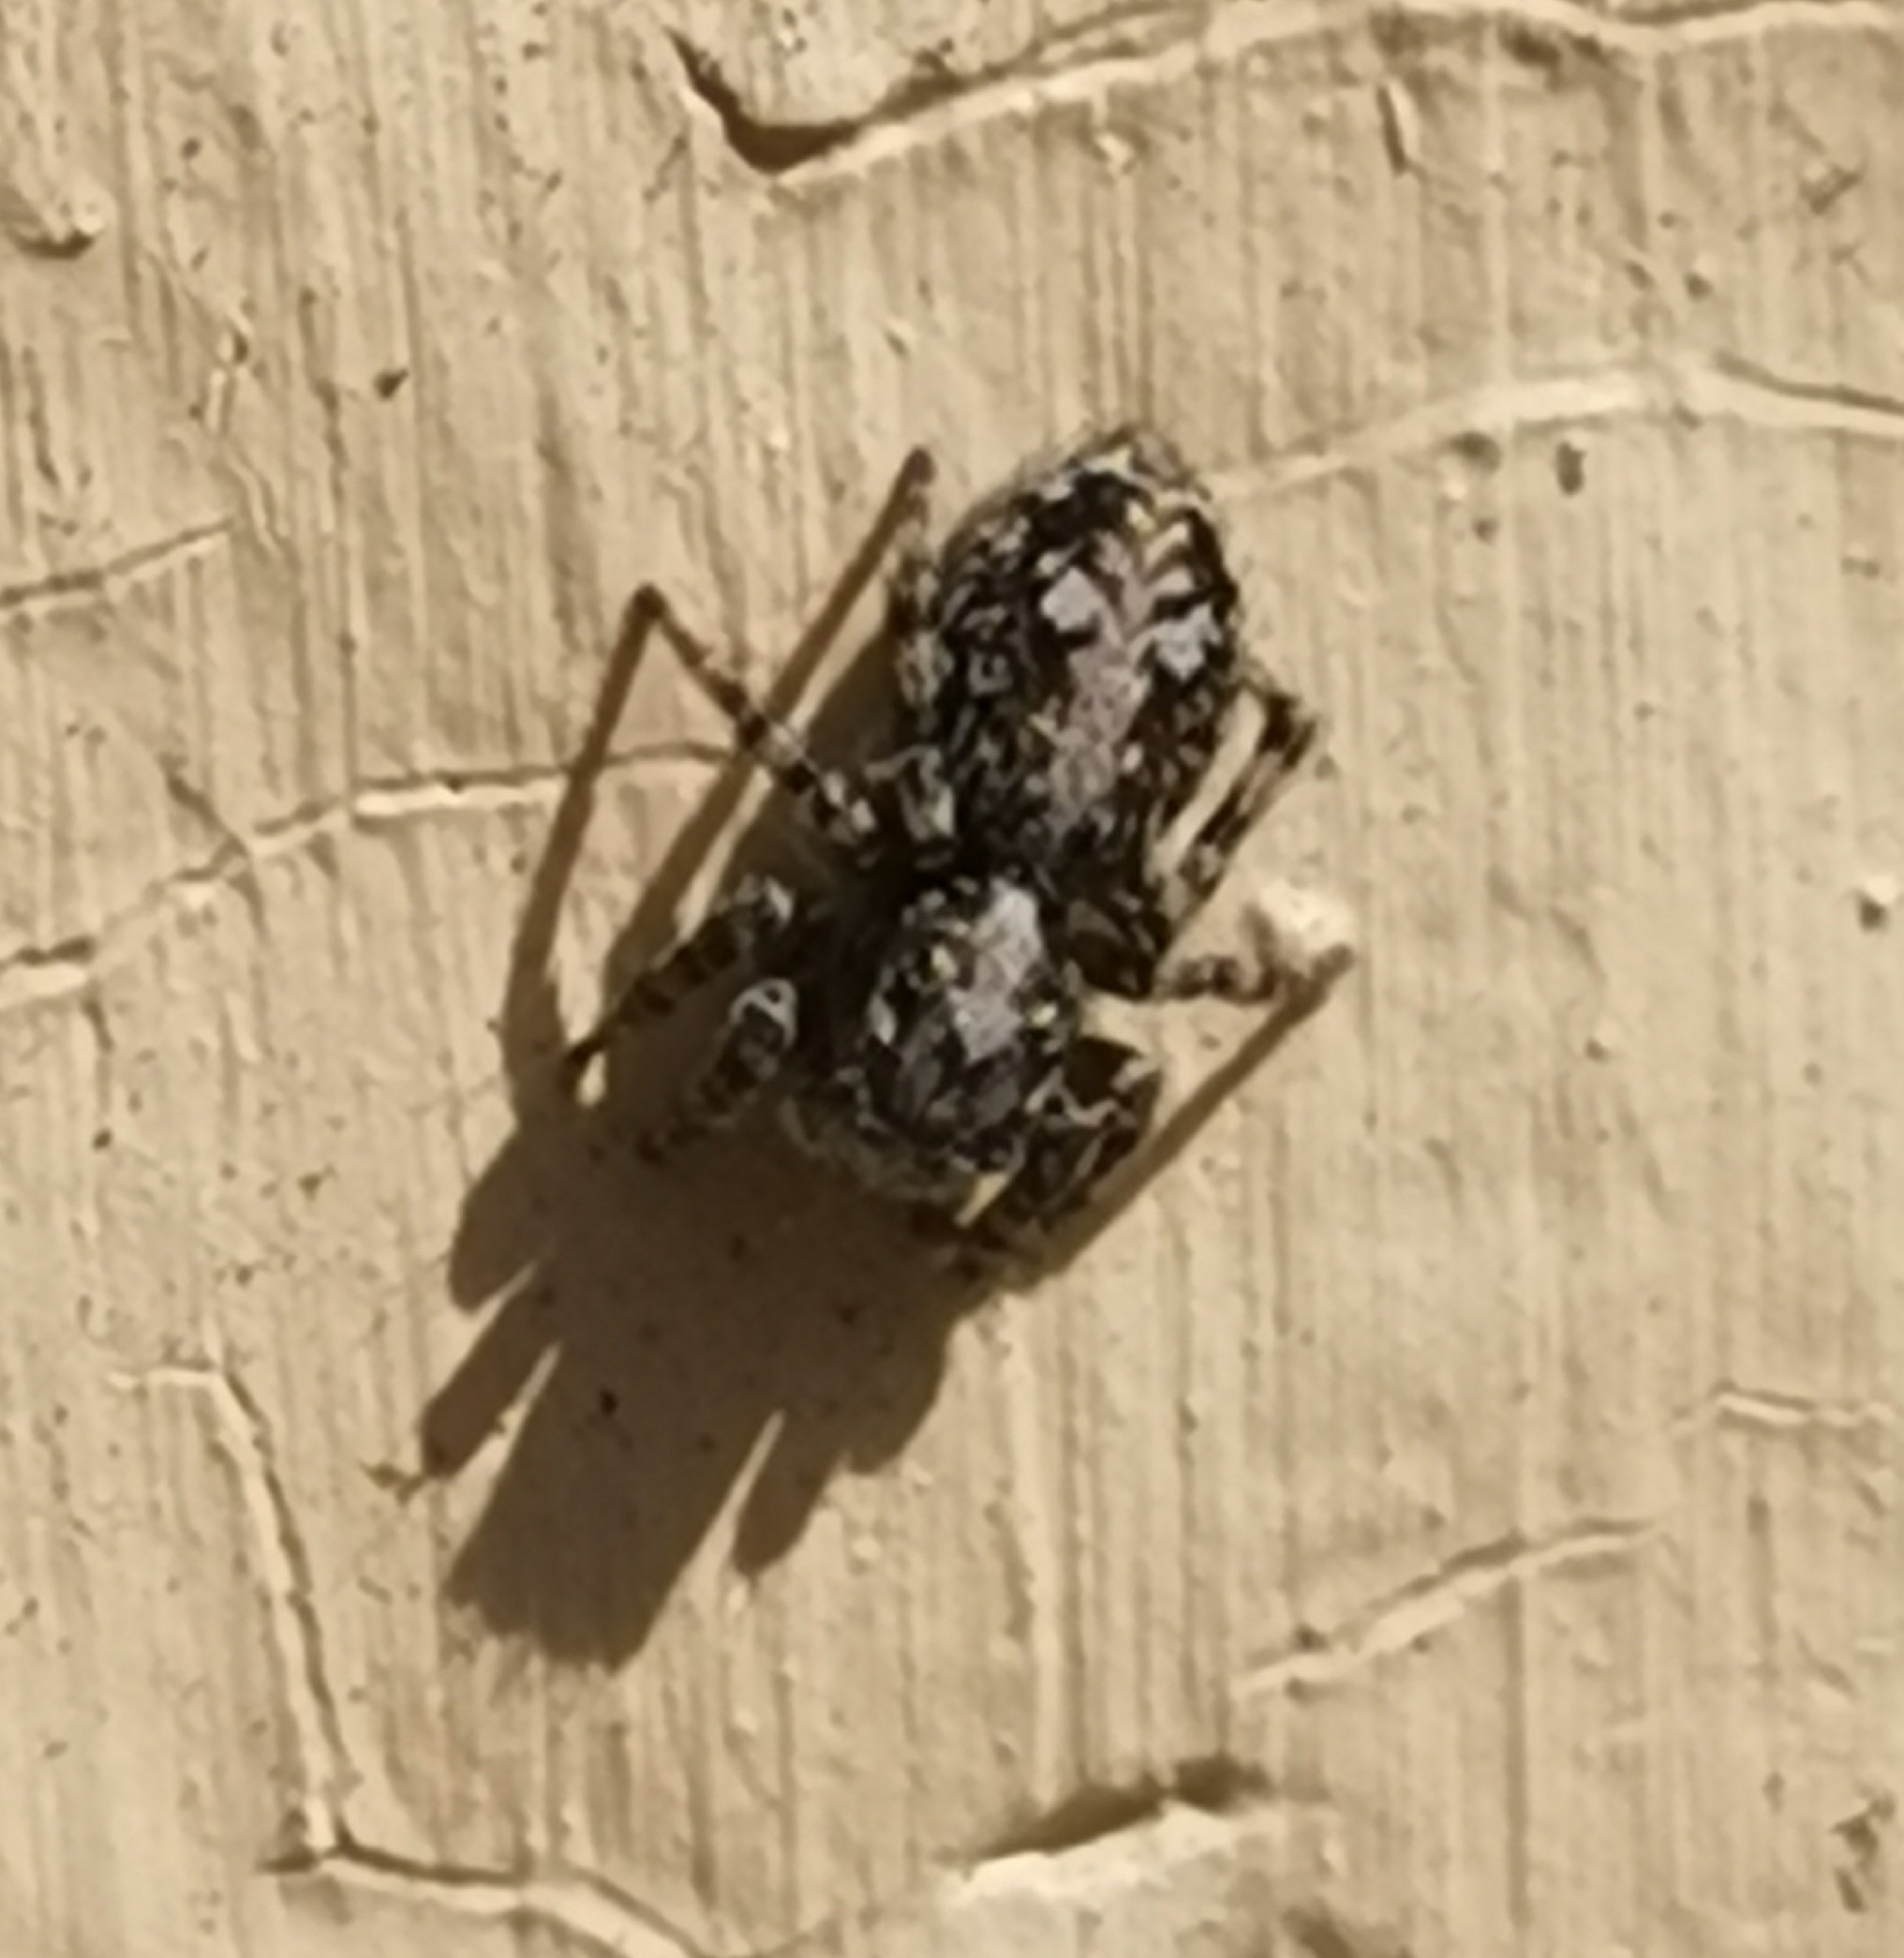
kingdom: Animalia
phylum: Arthropoda
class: Arachnida
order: Araneae
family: Salticidae
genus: Attulus
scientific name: Attulus terebratus
